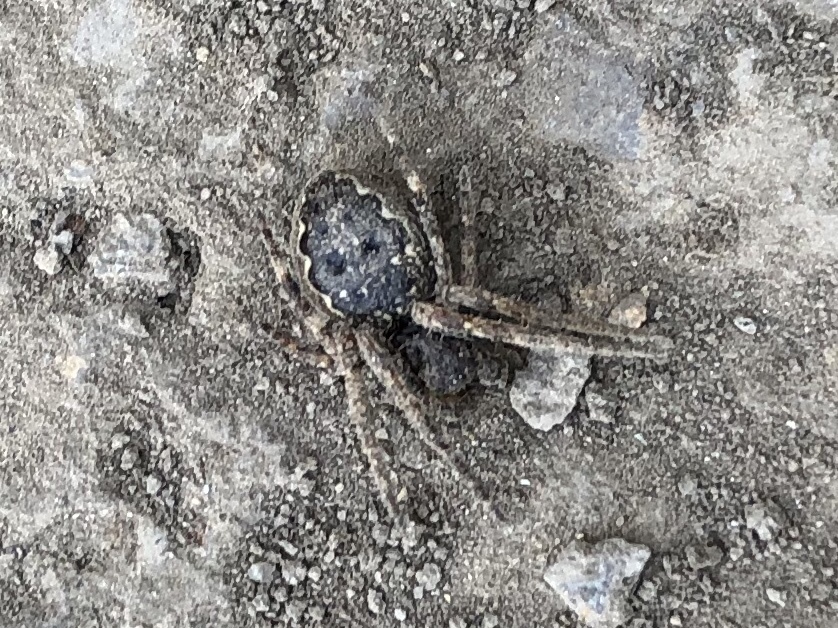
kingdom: Animalia
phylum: Arthropoda
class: Arachnida
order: Araneae
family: Araneidae
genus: Nuctenea
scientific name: Nuctenea umbratica
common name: Toad spider
